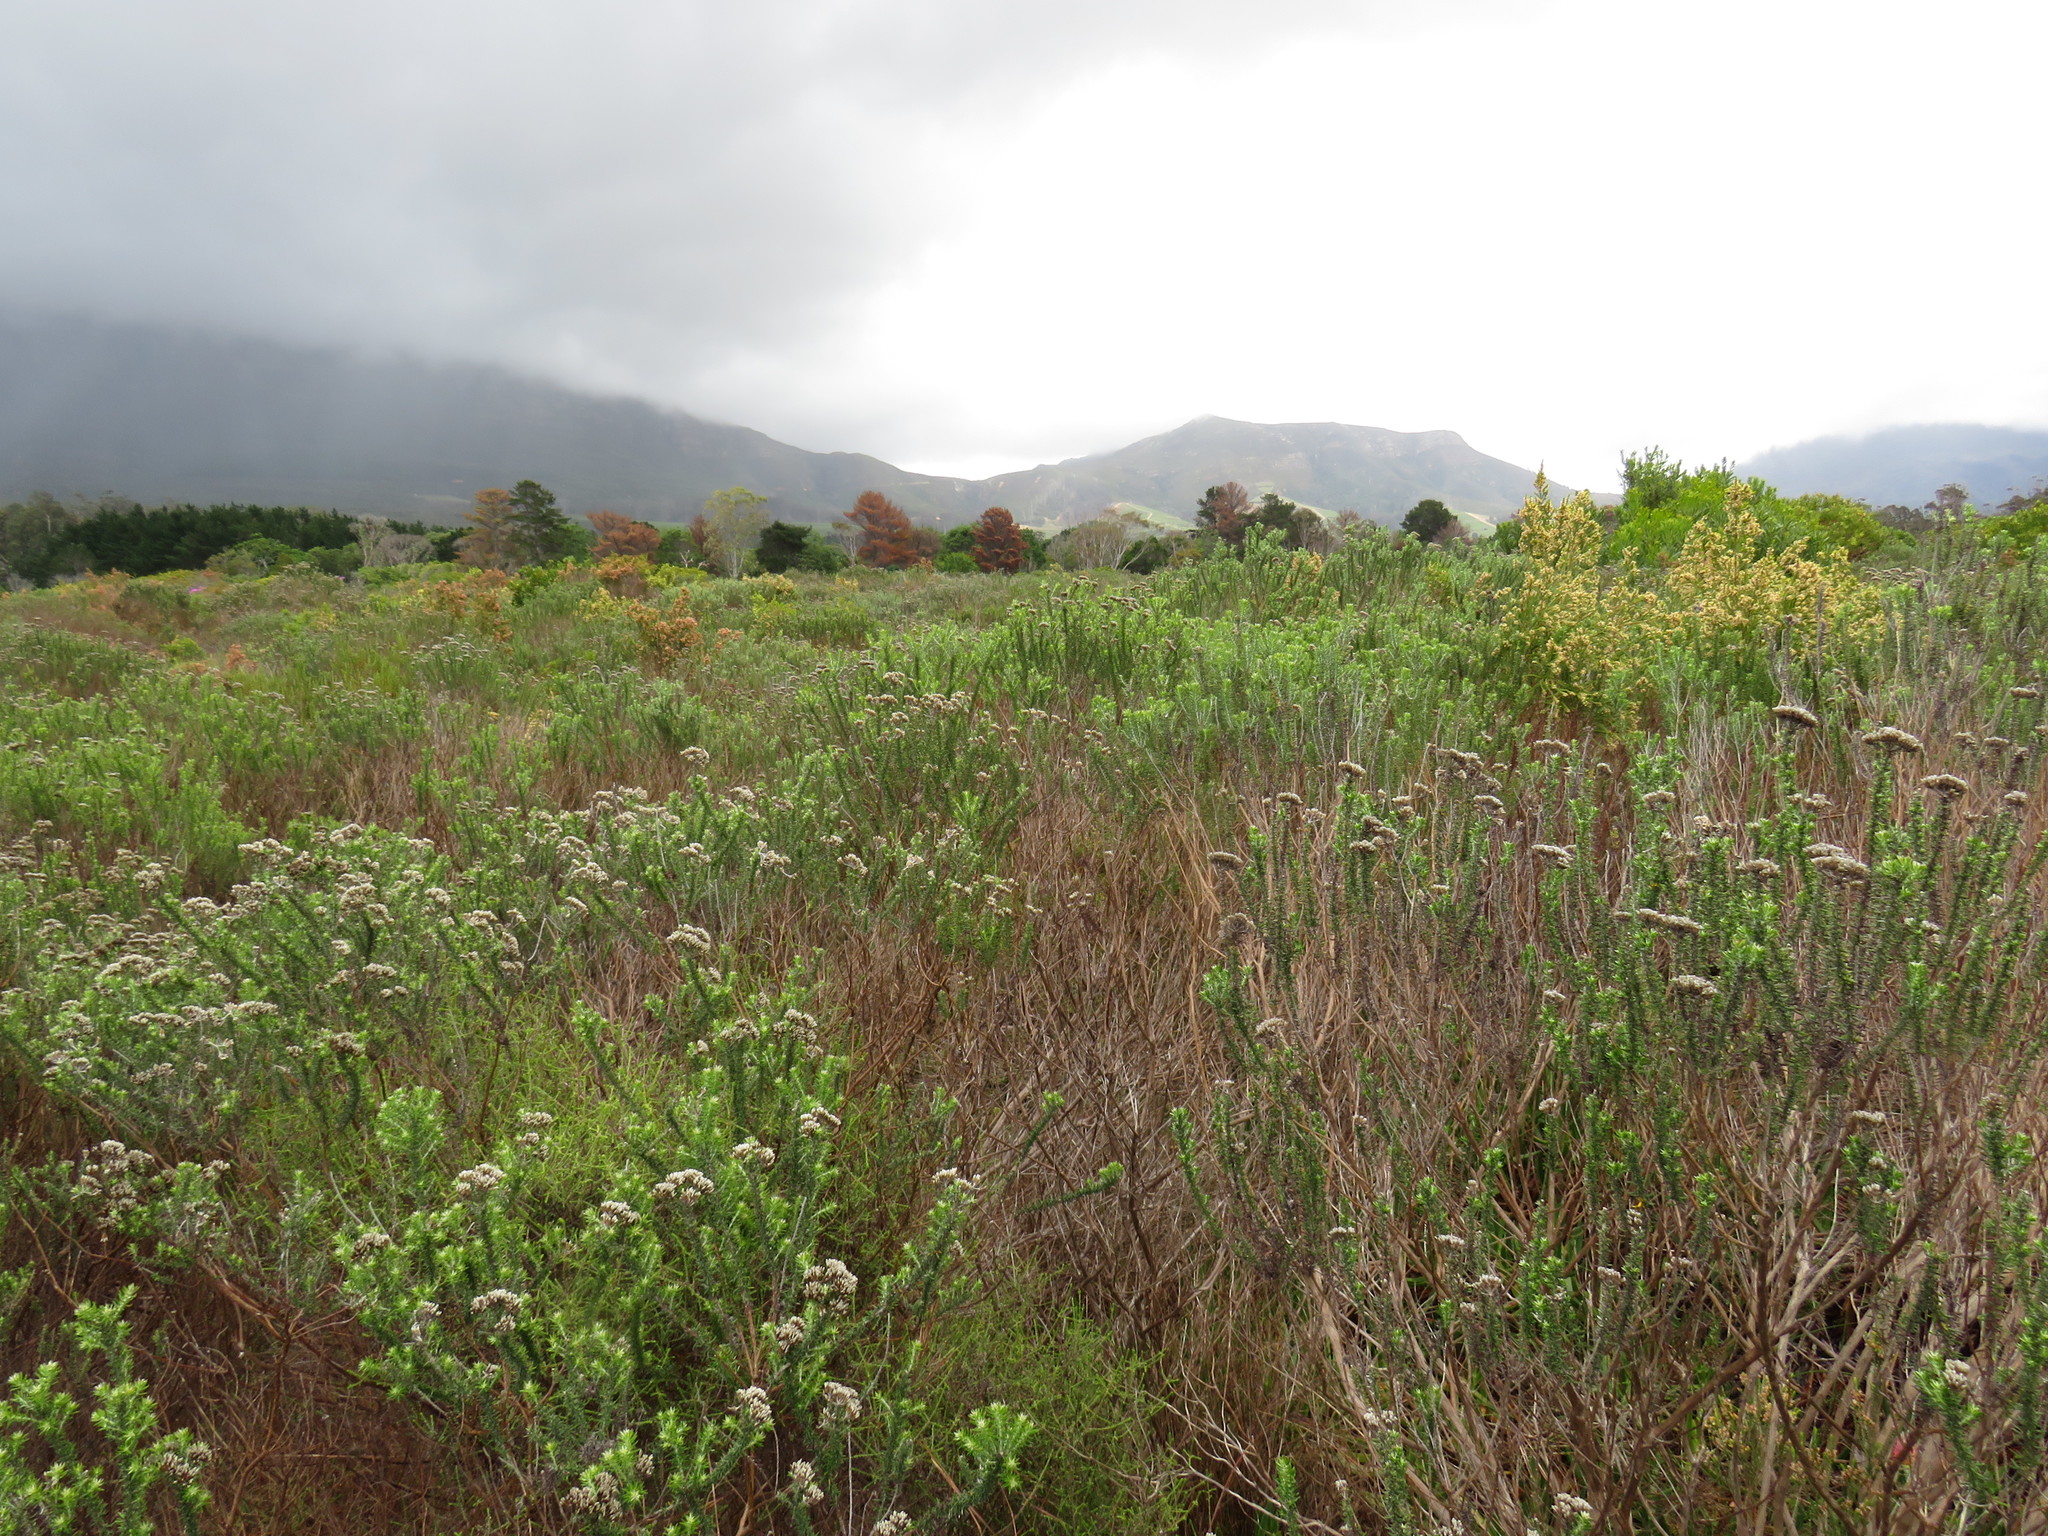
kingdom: Plantae
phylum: Tracheophyta
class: Magnoliopsida
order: Asterales
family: Asteraceae
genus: Metalasia
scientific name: Metalasia densa
